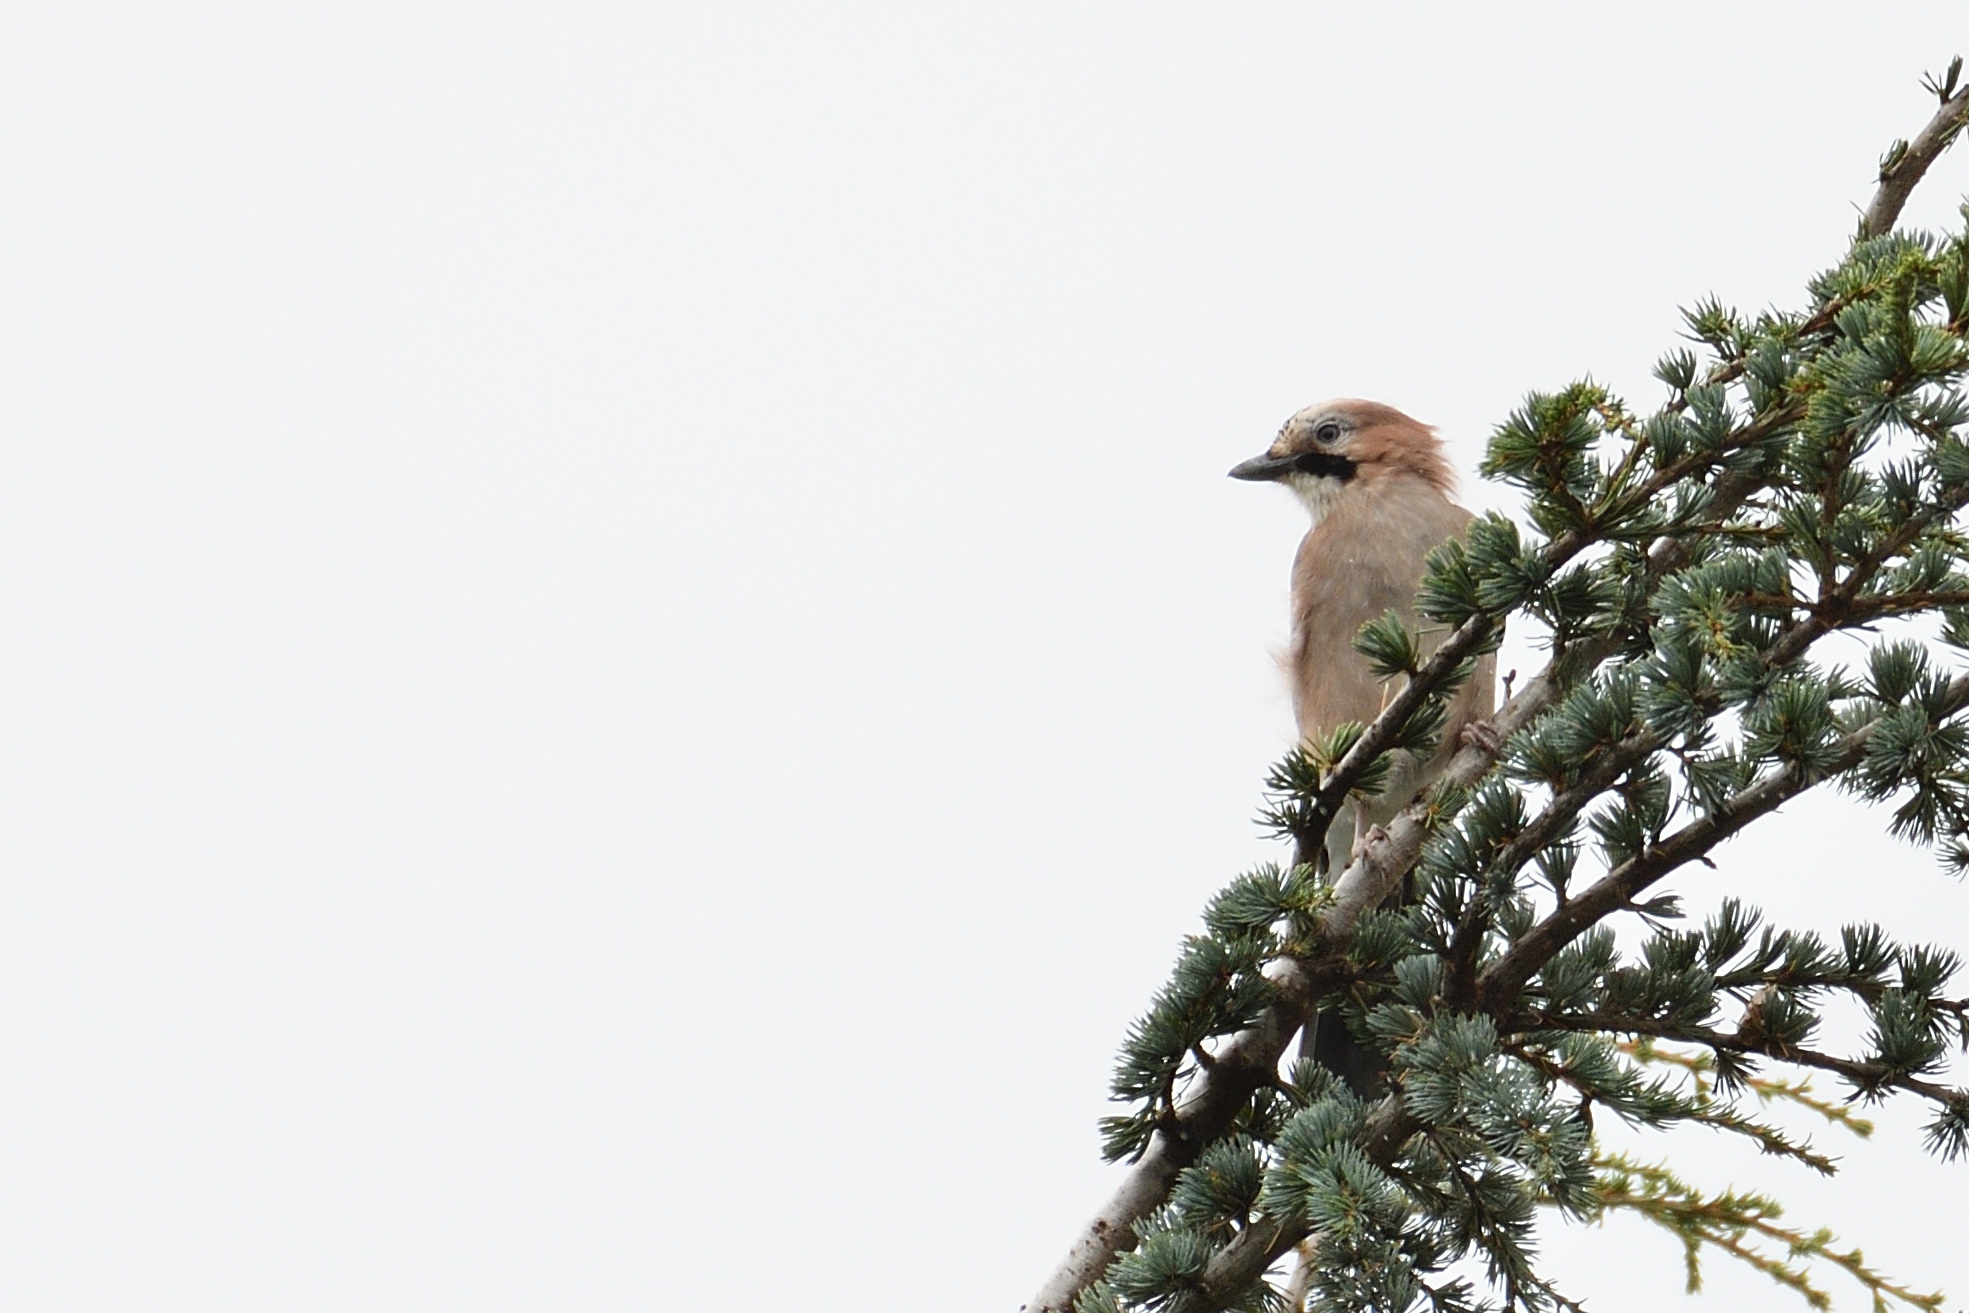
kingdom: Animalia
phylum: Chordata
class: Aves
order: Passeriformes
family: Corvidae
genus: Garrulus
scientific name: Garrulus glandarius
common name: Eurasian jay
